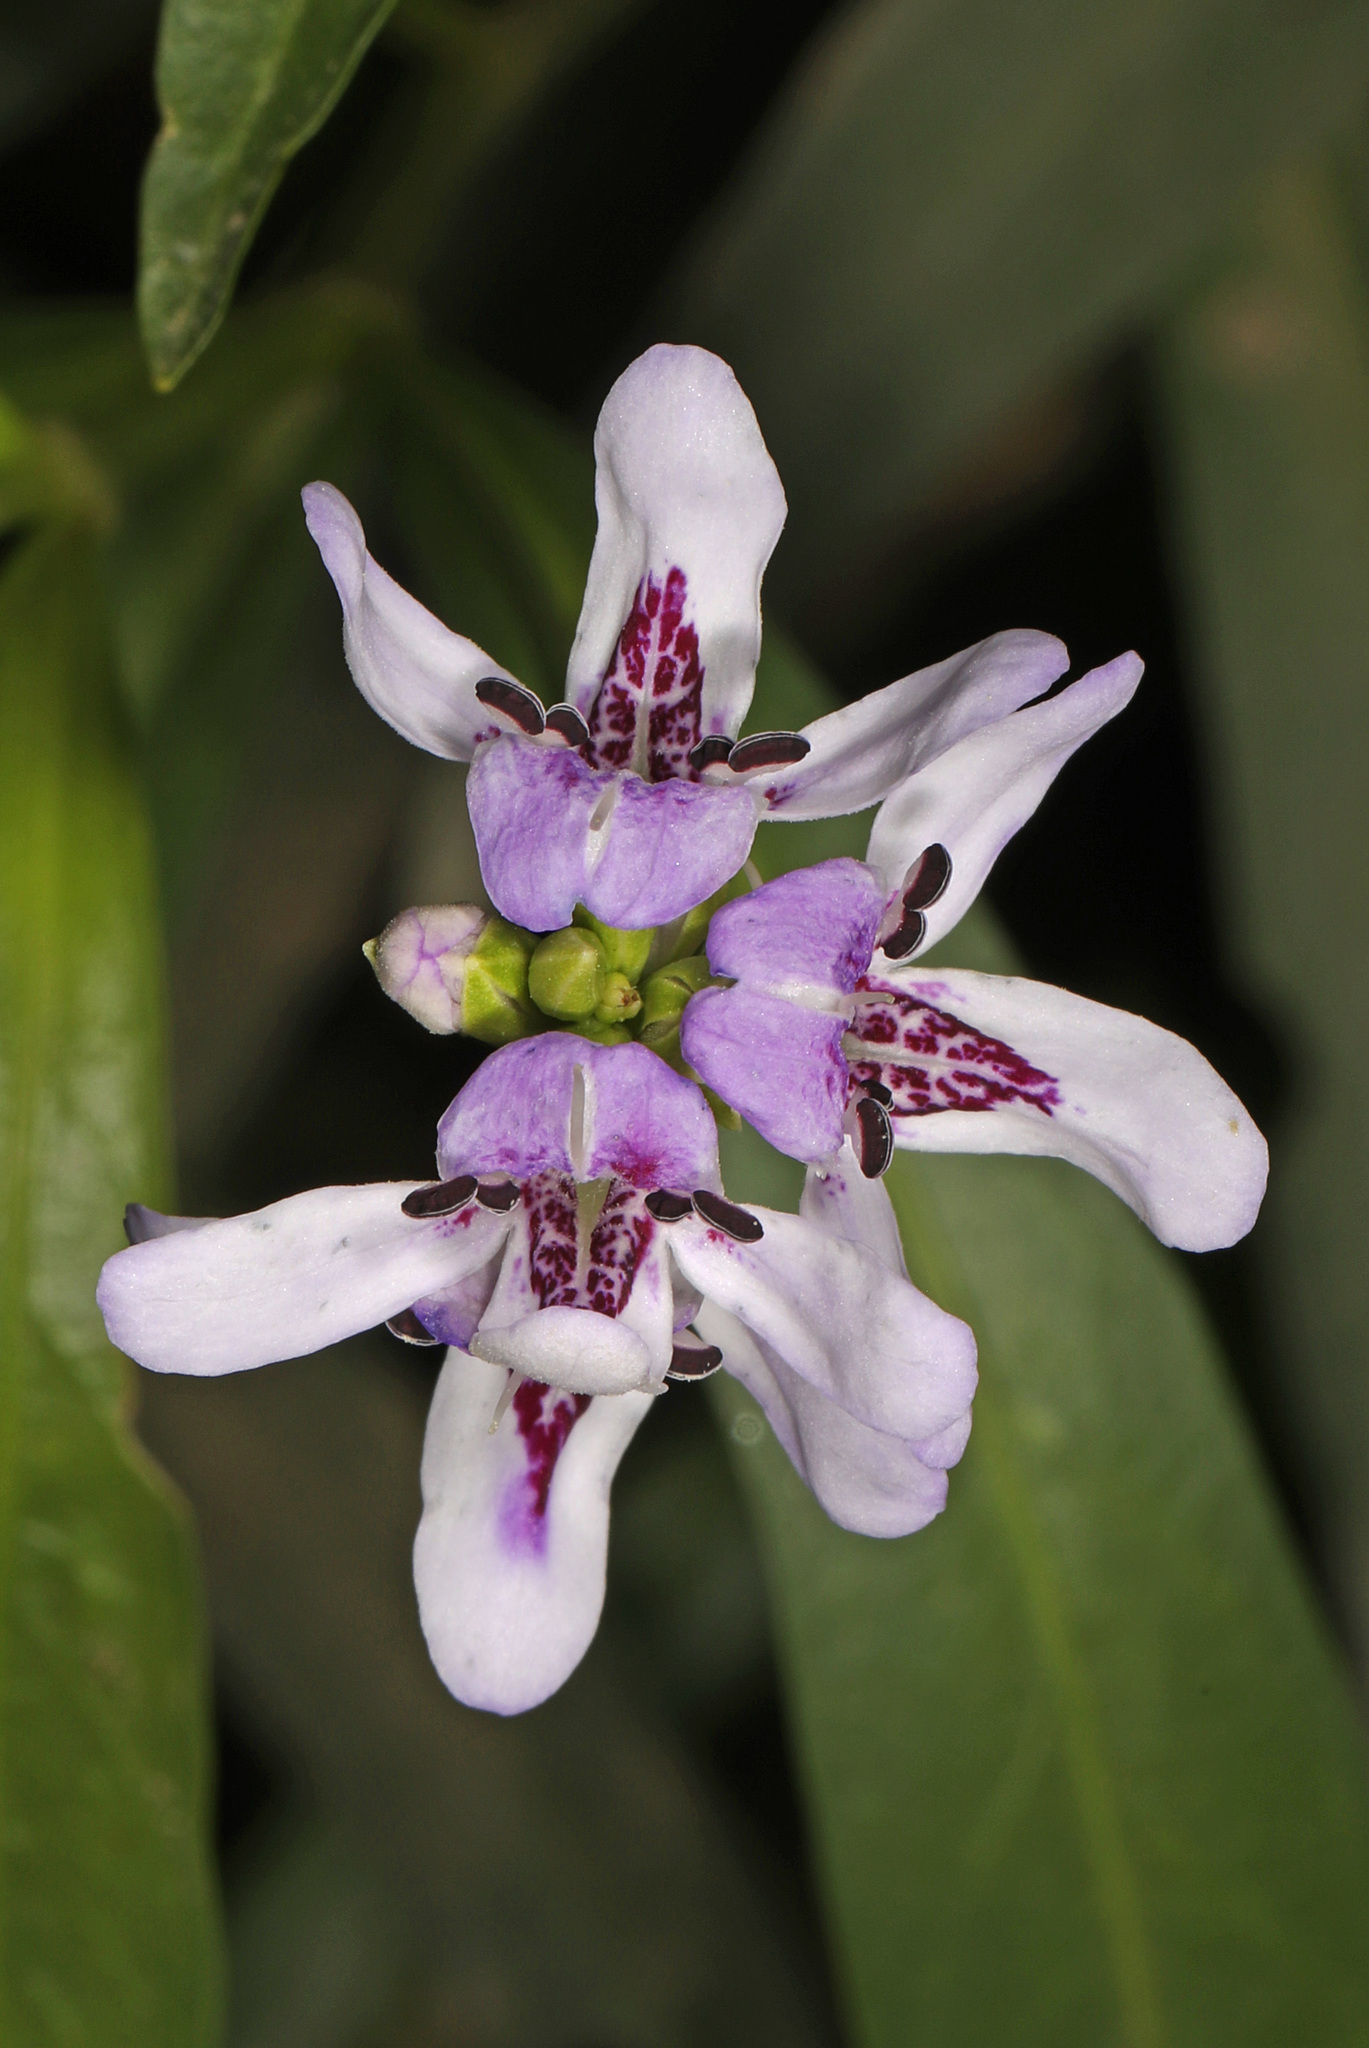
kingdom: Plantae
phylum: Tracheophyta
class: Magnoliopsida
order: Lamiales
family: Acanthaceae
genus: Dianthera
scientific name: Dianthera americana
